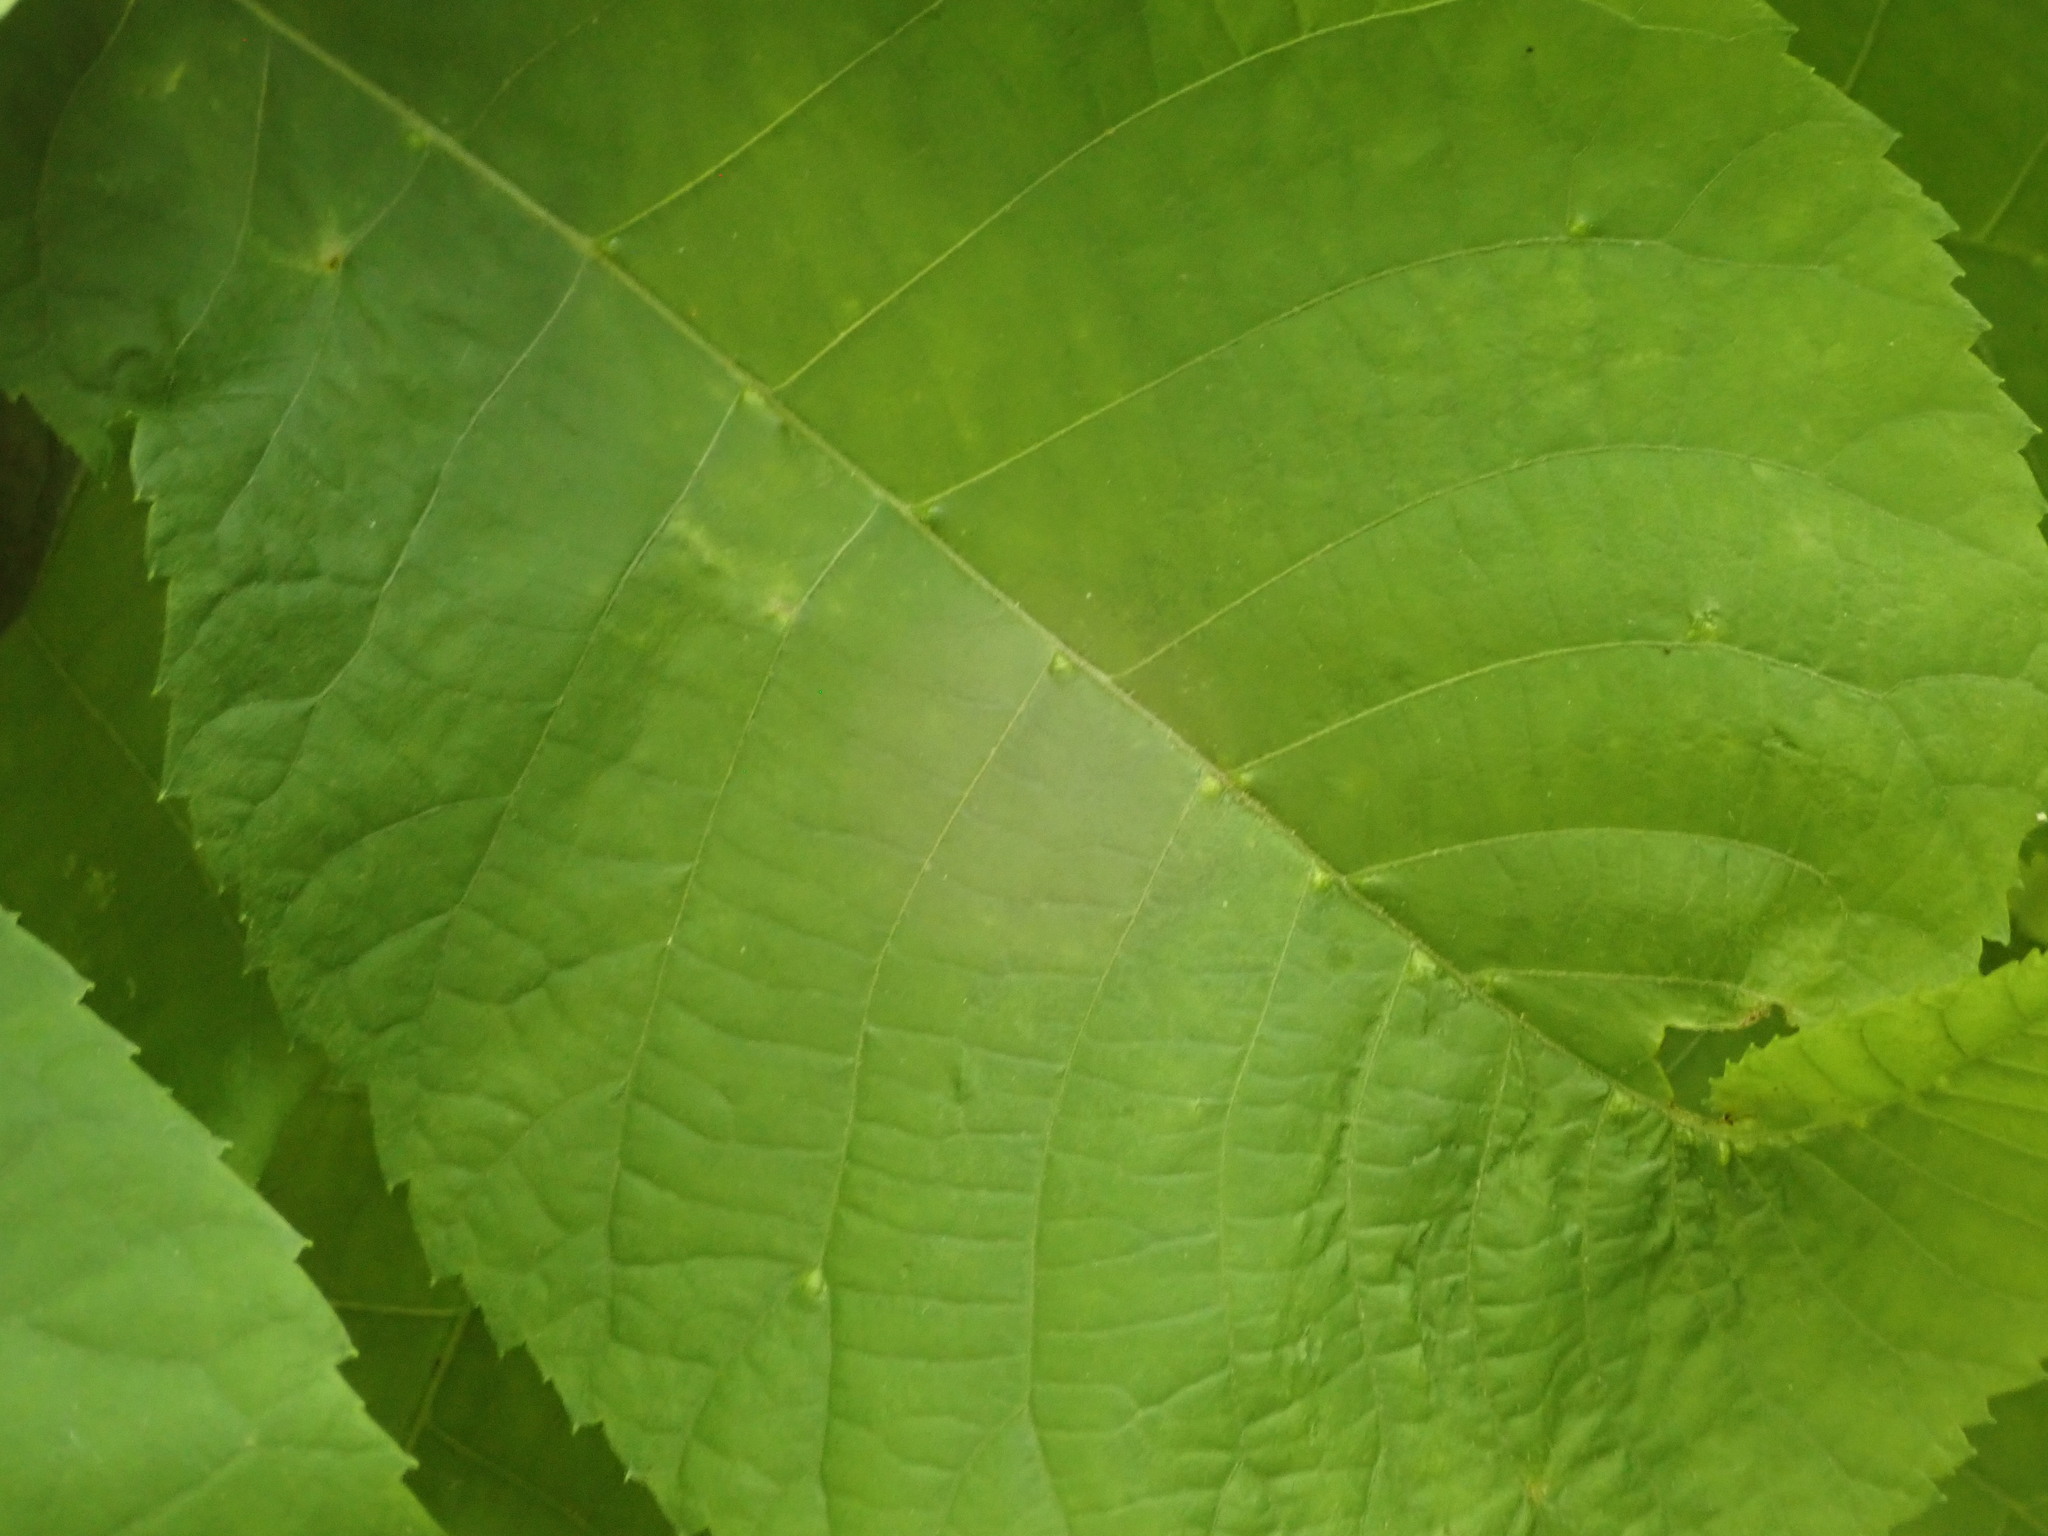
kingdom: Animalia
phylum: Arthropoda
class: Arachnida
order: Trombidiformes
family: Eriophyidae
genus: Aceria
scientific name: Aceria
